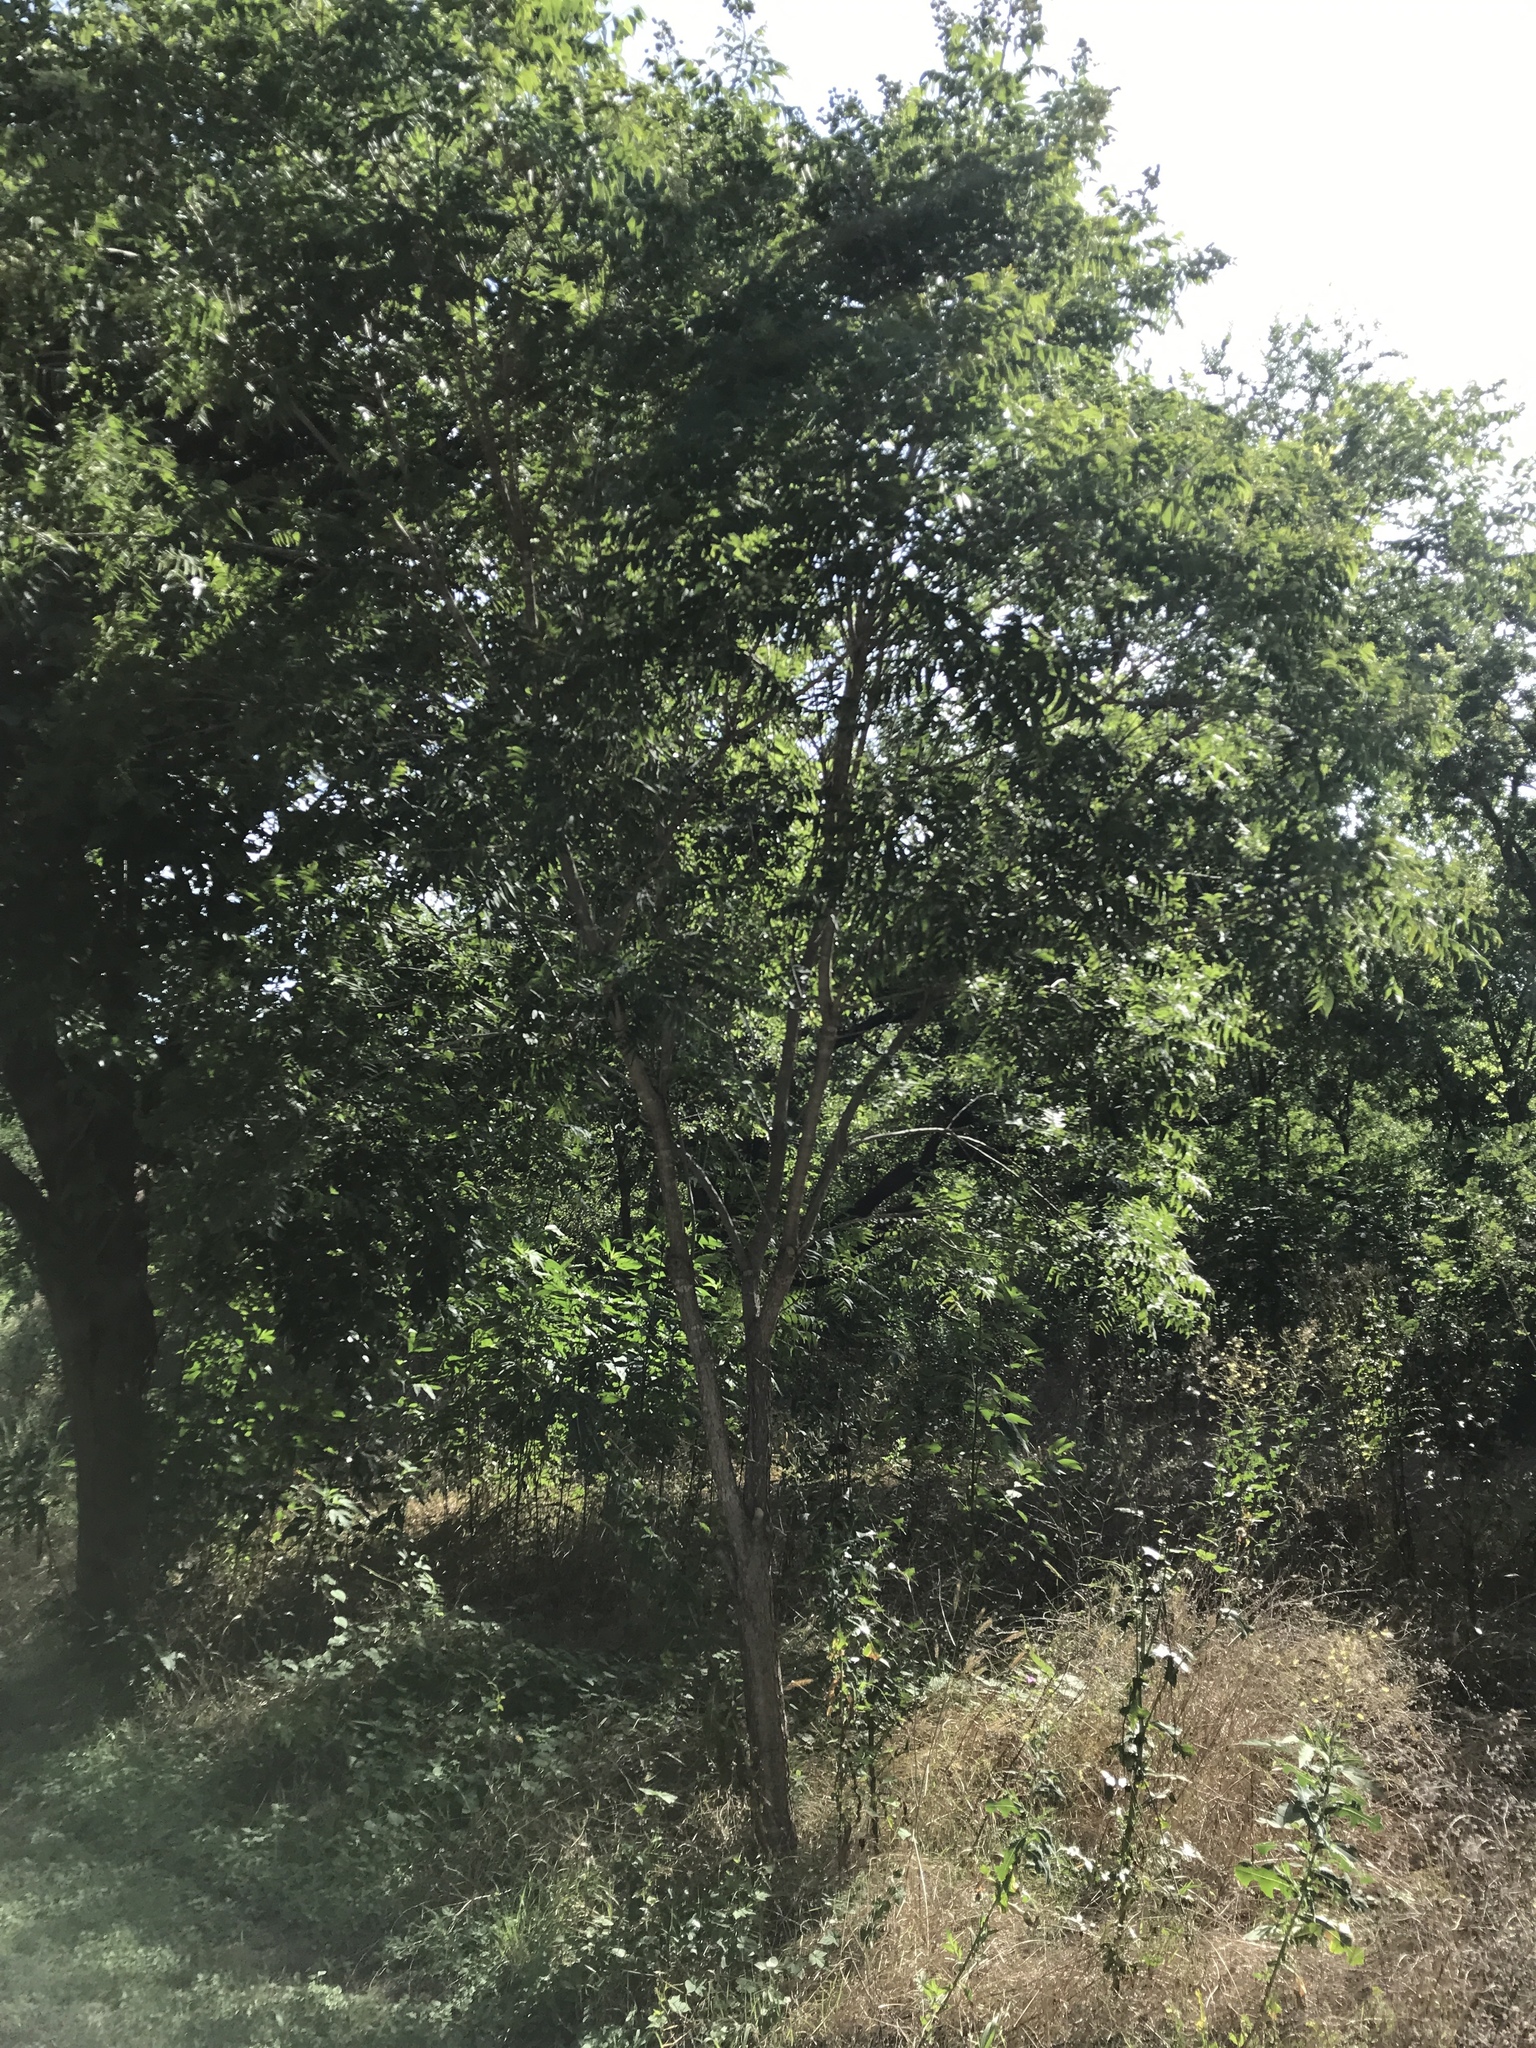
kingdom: Plantae
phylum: Tracheophyta
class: Magnoliopsida
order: Sapindales
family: Sapindaceae
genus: Sapindus
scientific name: Sapindus drummondii
